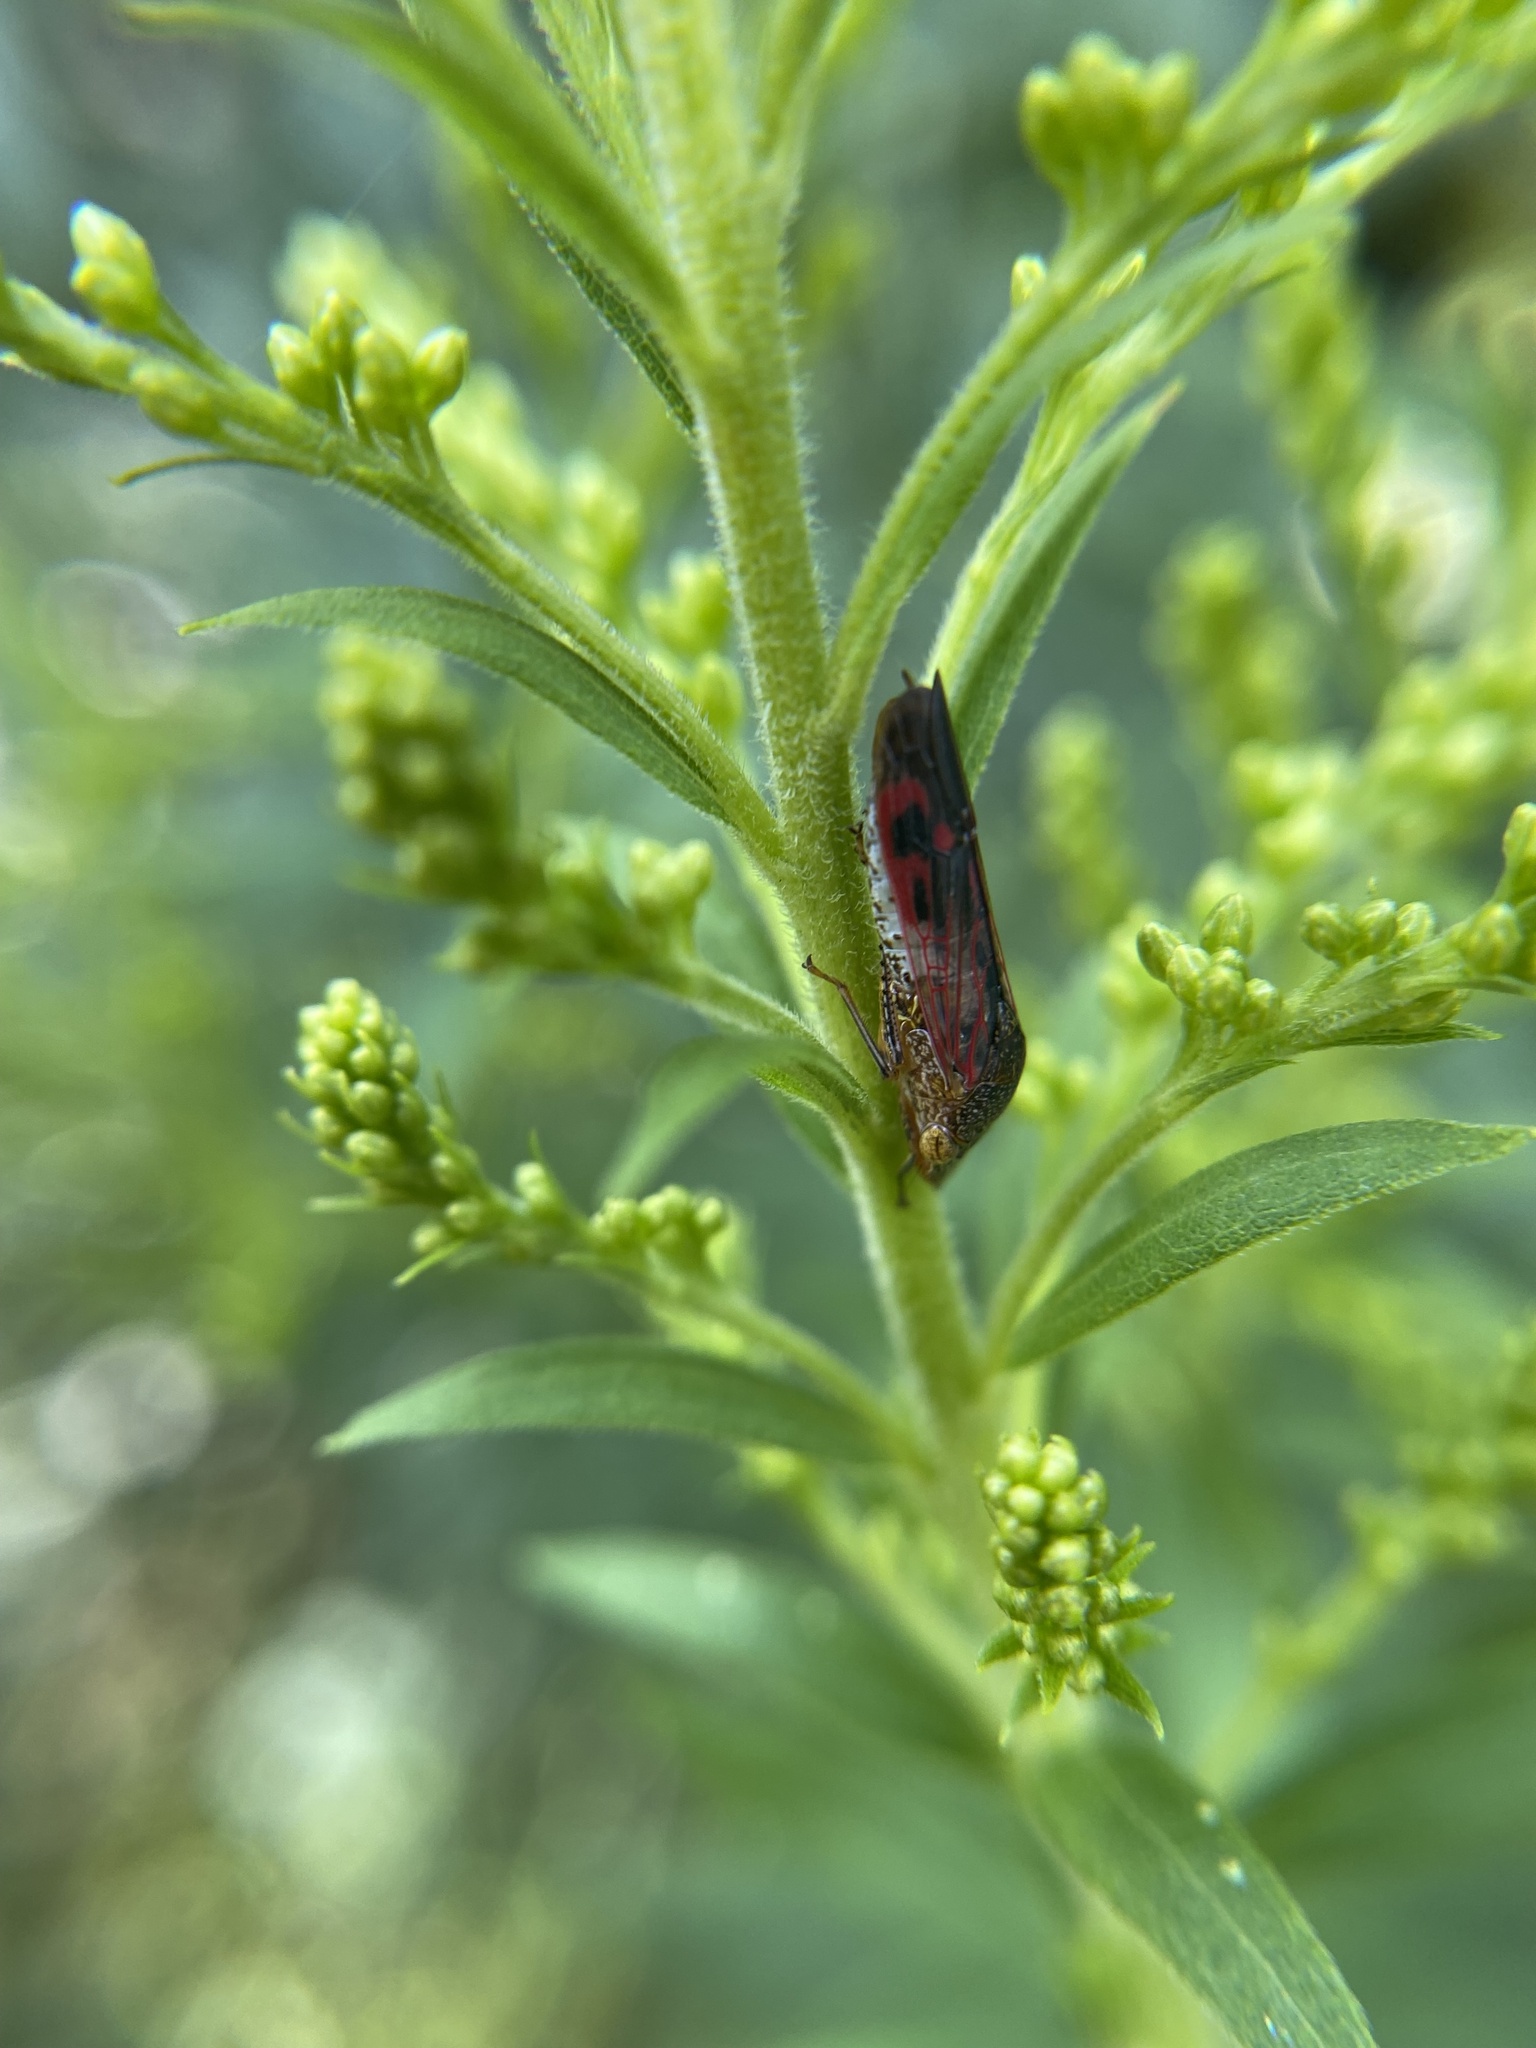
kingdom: Animalia
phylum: Arthropoda
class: Insecta
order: Hemiptera
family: Cicadellidae
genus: Homalodisca
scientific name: Homalodisca vitripennis
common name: Glassy-winged sharpshooter
